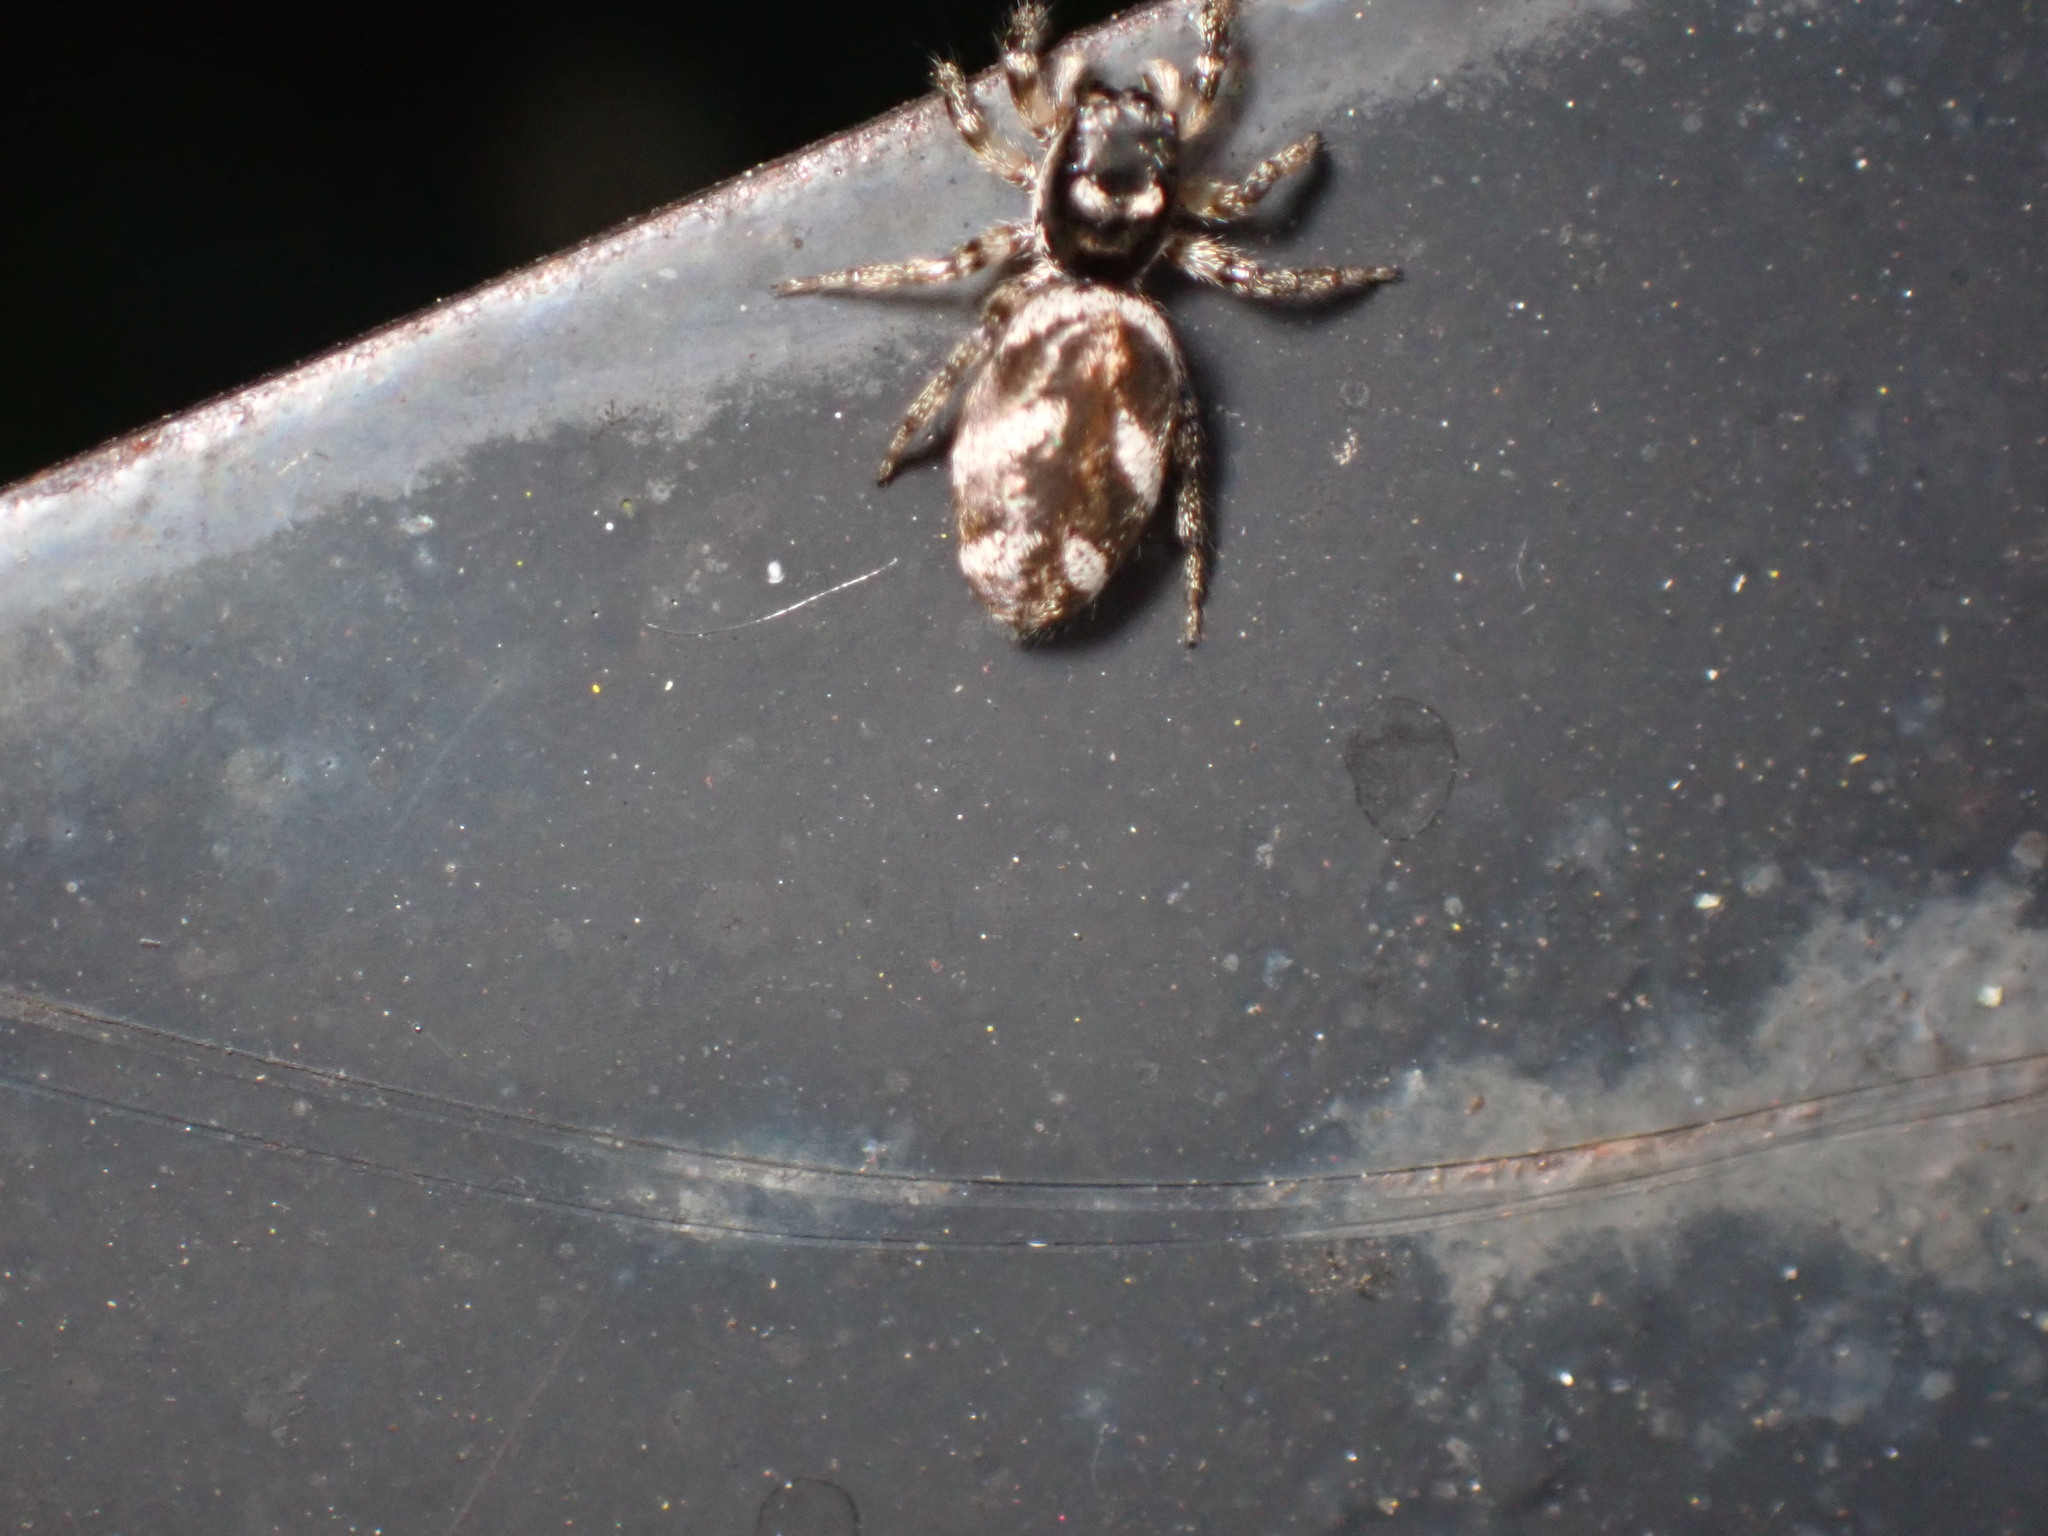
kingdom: Animalia
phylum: Arthropoda
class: Arachnida
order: Araneae
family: Salticidae
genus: Salticus
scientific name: Salticus scenicus
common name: Zebra jumper
